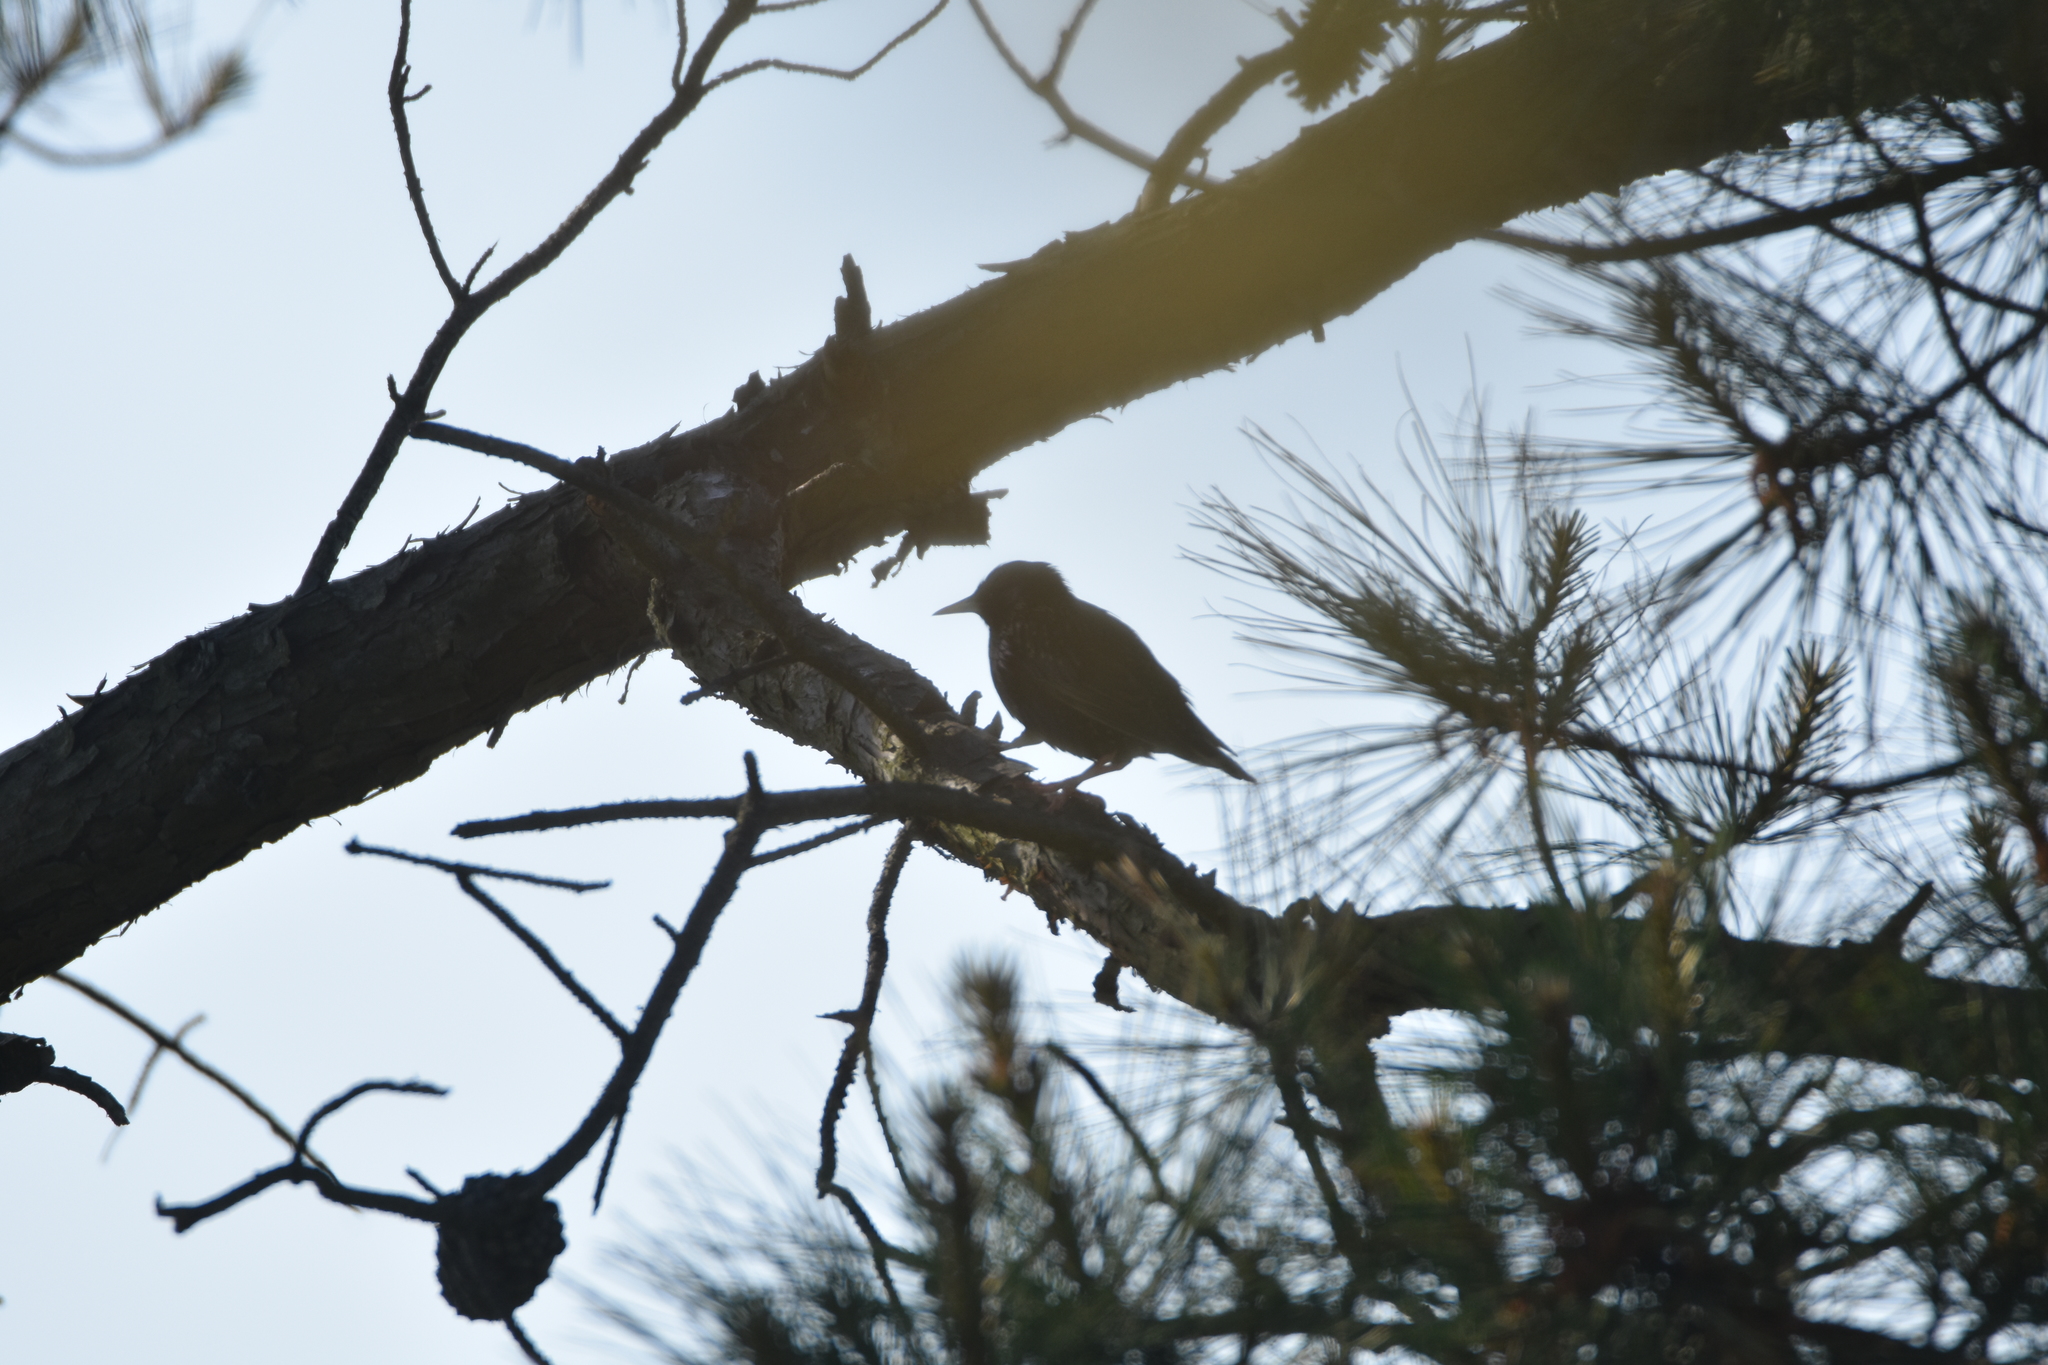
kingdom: Animalia
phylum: Chordata
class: Aves
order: Passeriformes
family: Sturnidae
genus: Sturnus
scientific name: Sturnus vulgaris
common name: Common starling
